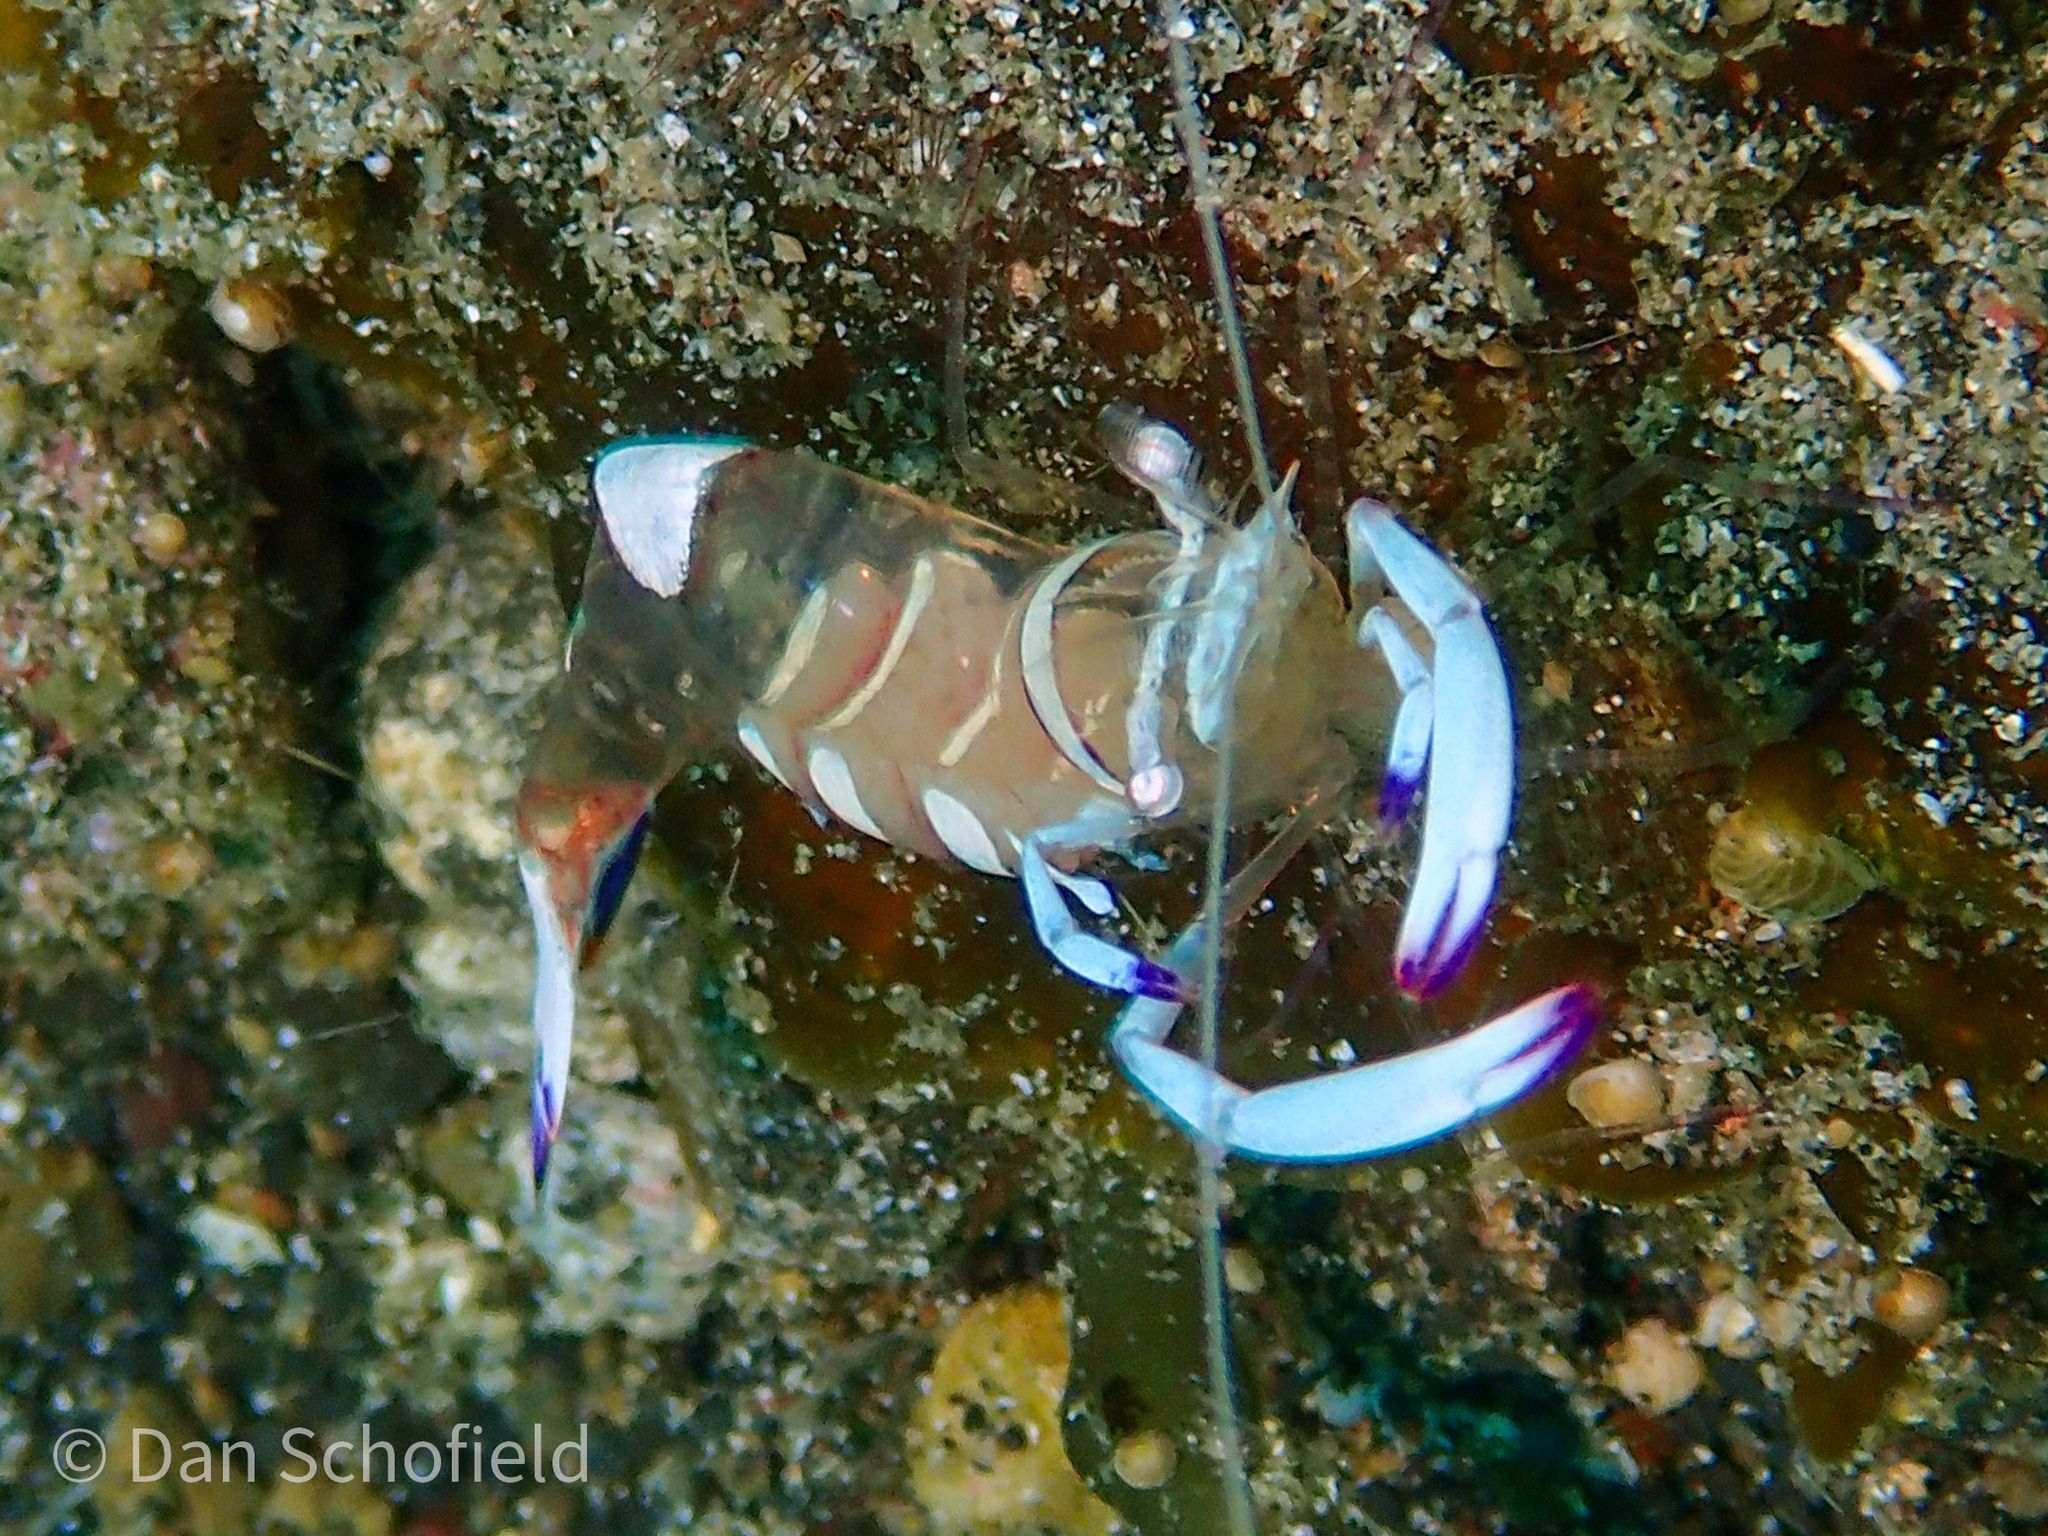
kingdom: Animalia
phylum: Arthropoda
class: Malacostraca
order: Decapoda
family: Palaemonidae
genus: Ancylomenes
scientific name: Ancylomenes magnificus
